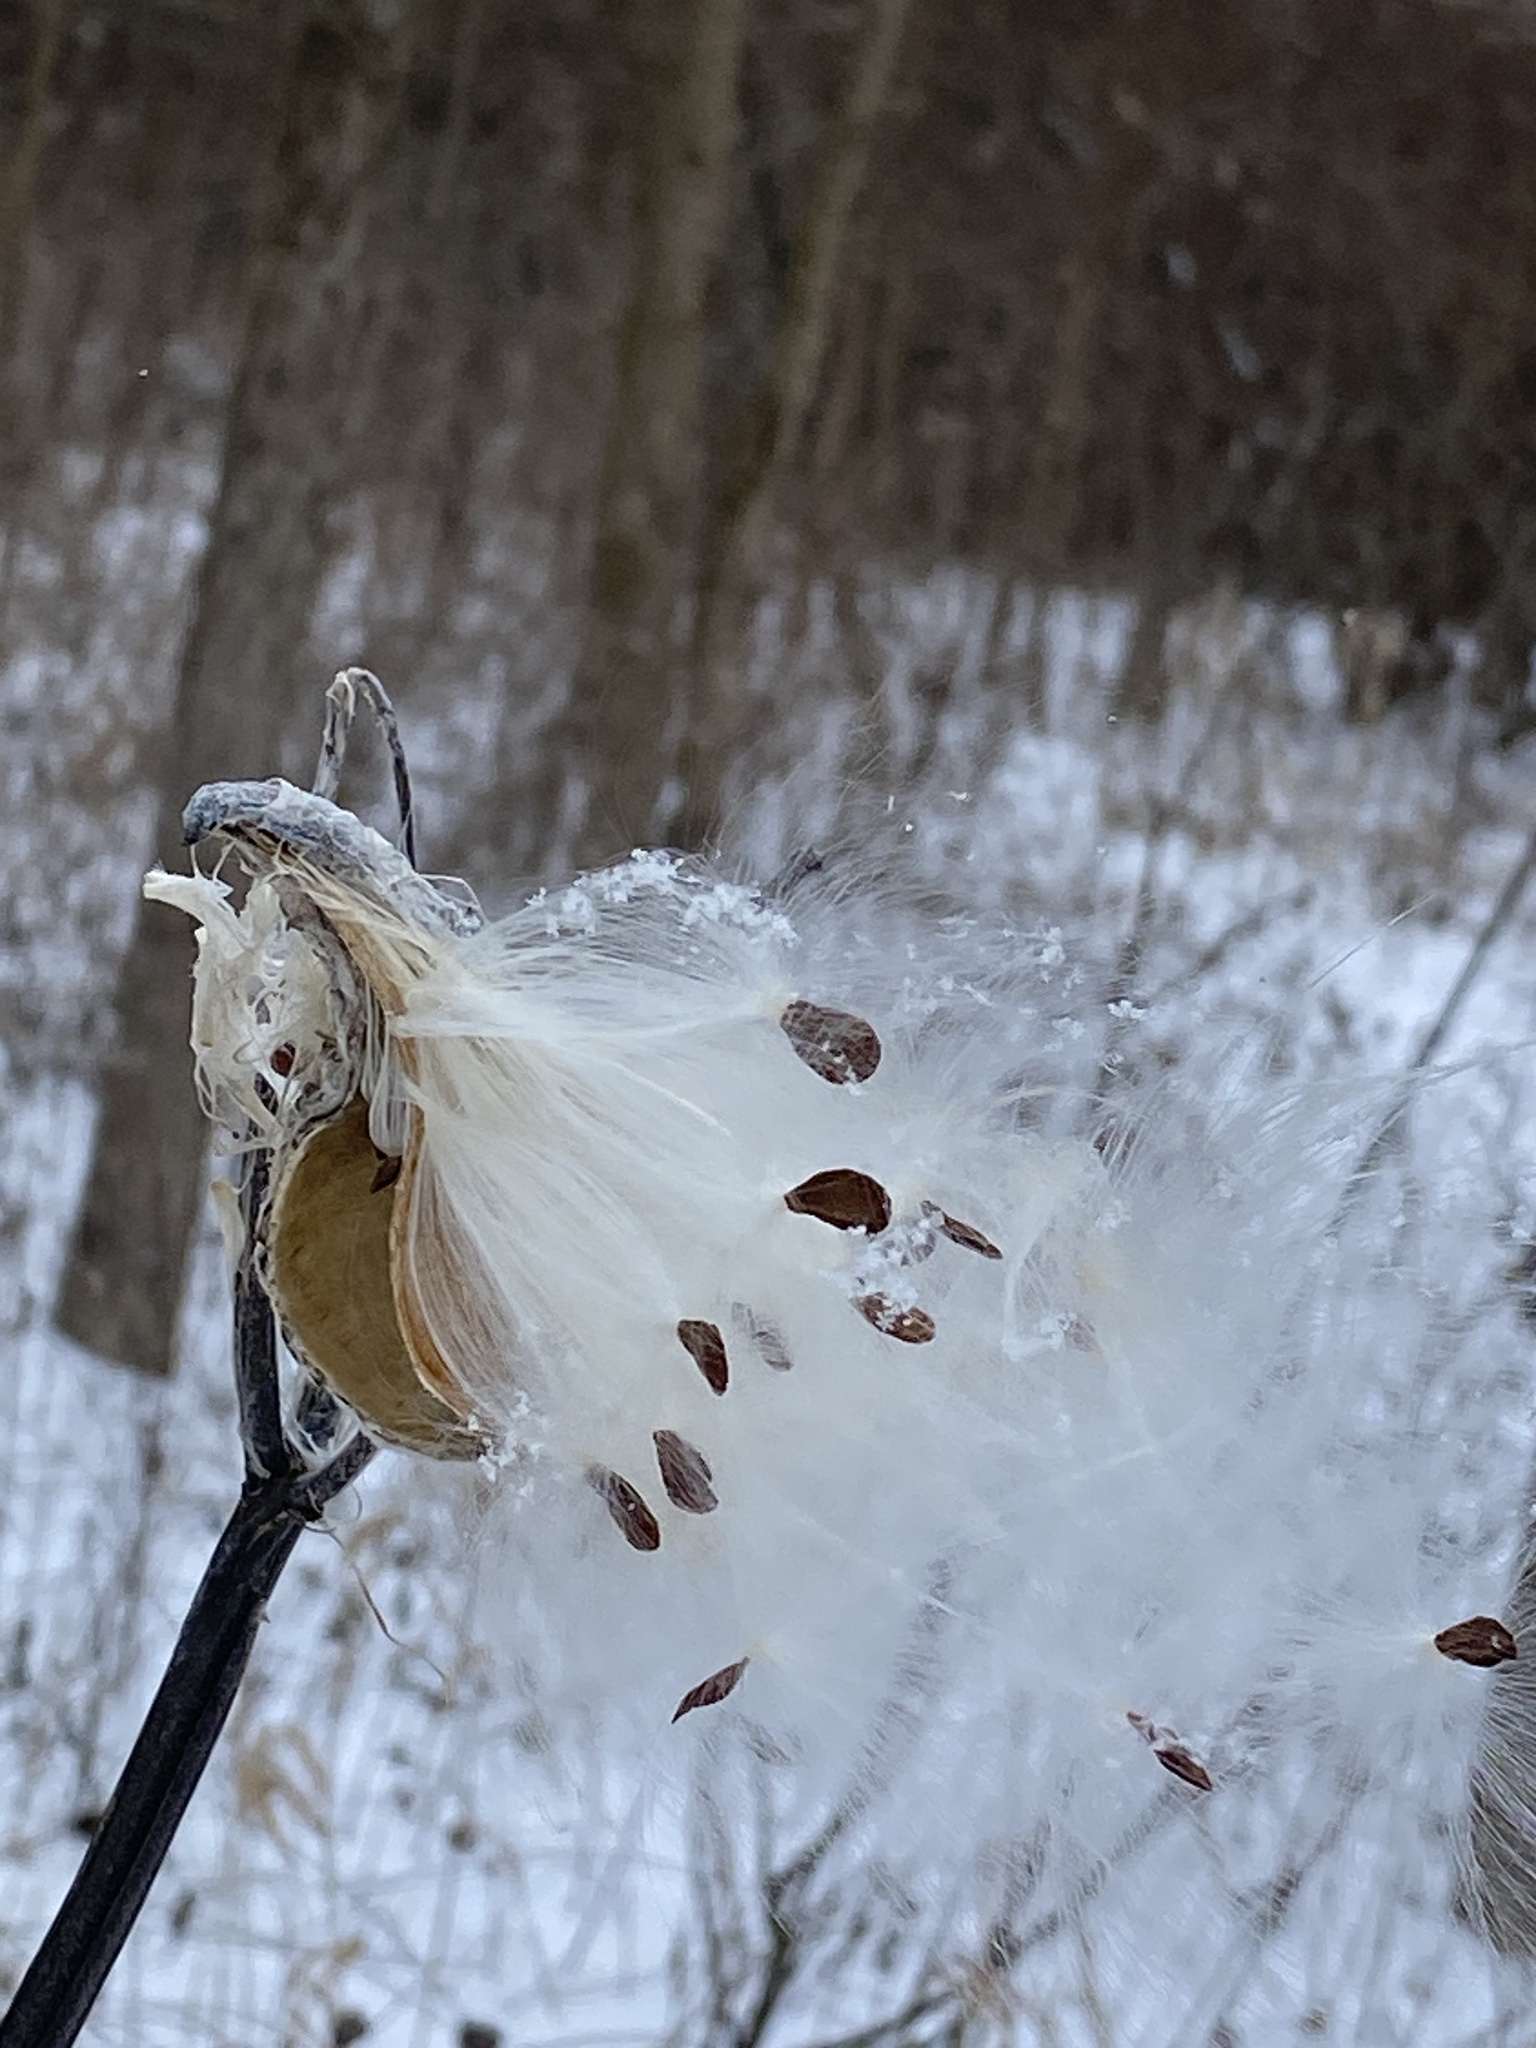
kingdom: Plantae
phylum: Tracheophyta
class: Magnoliopsida
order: Gentianales
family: Apocynaceae
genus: Asclepias
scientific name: Asclepias syriaca
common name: Common milkweed
